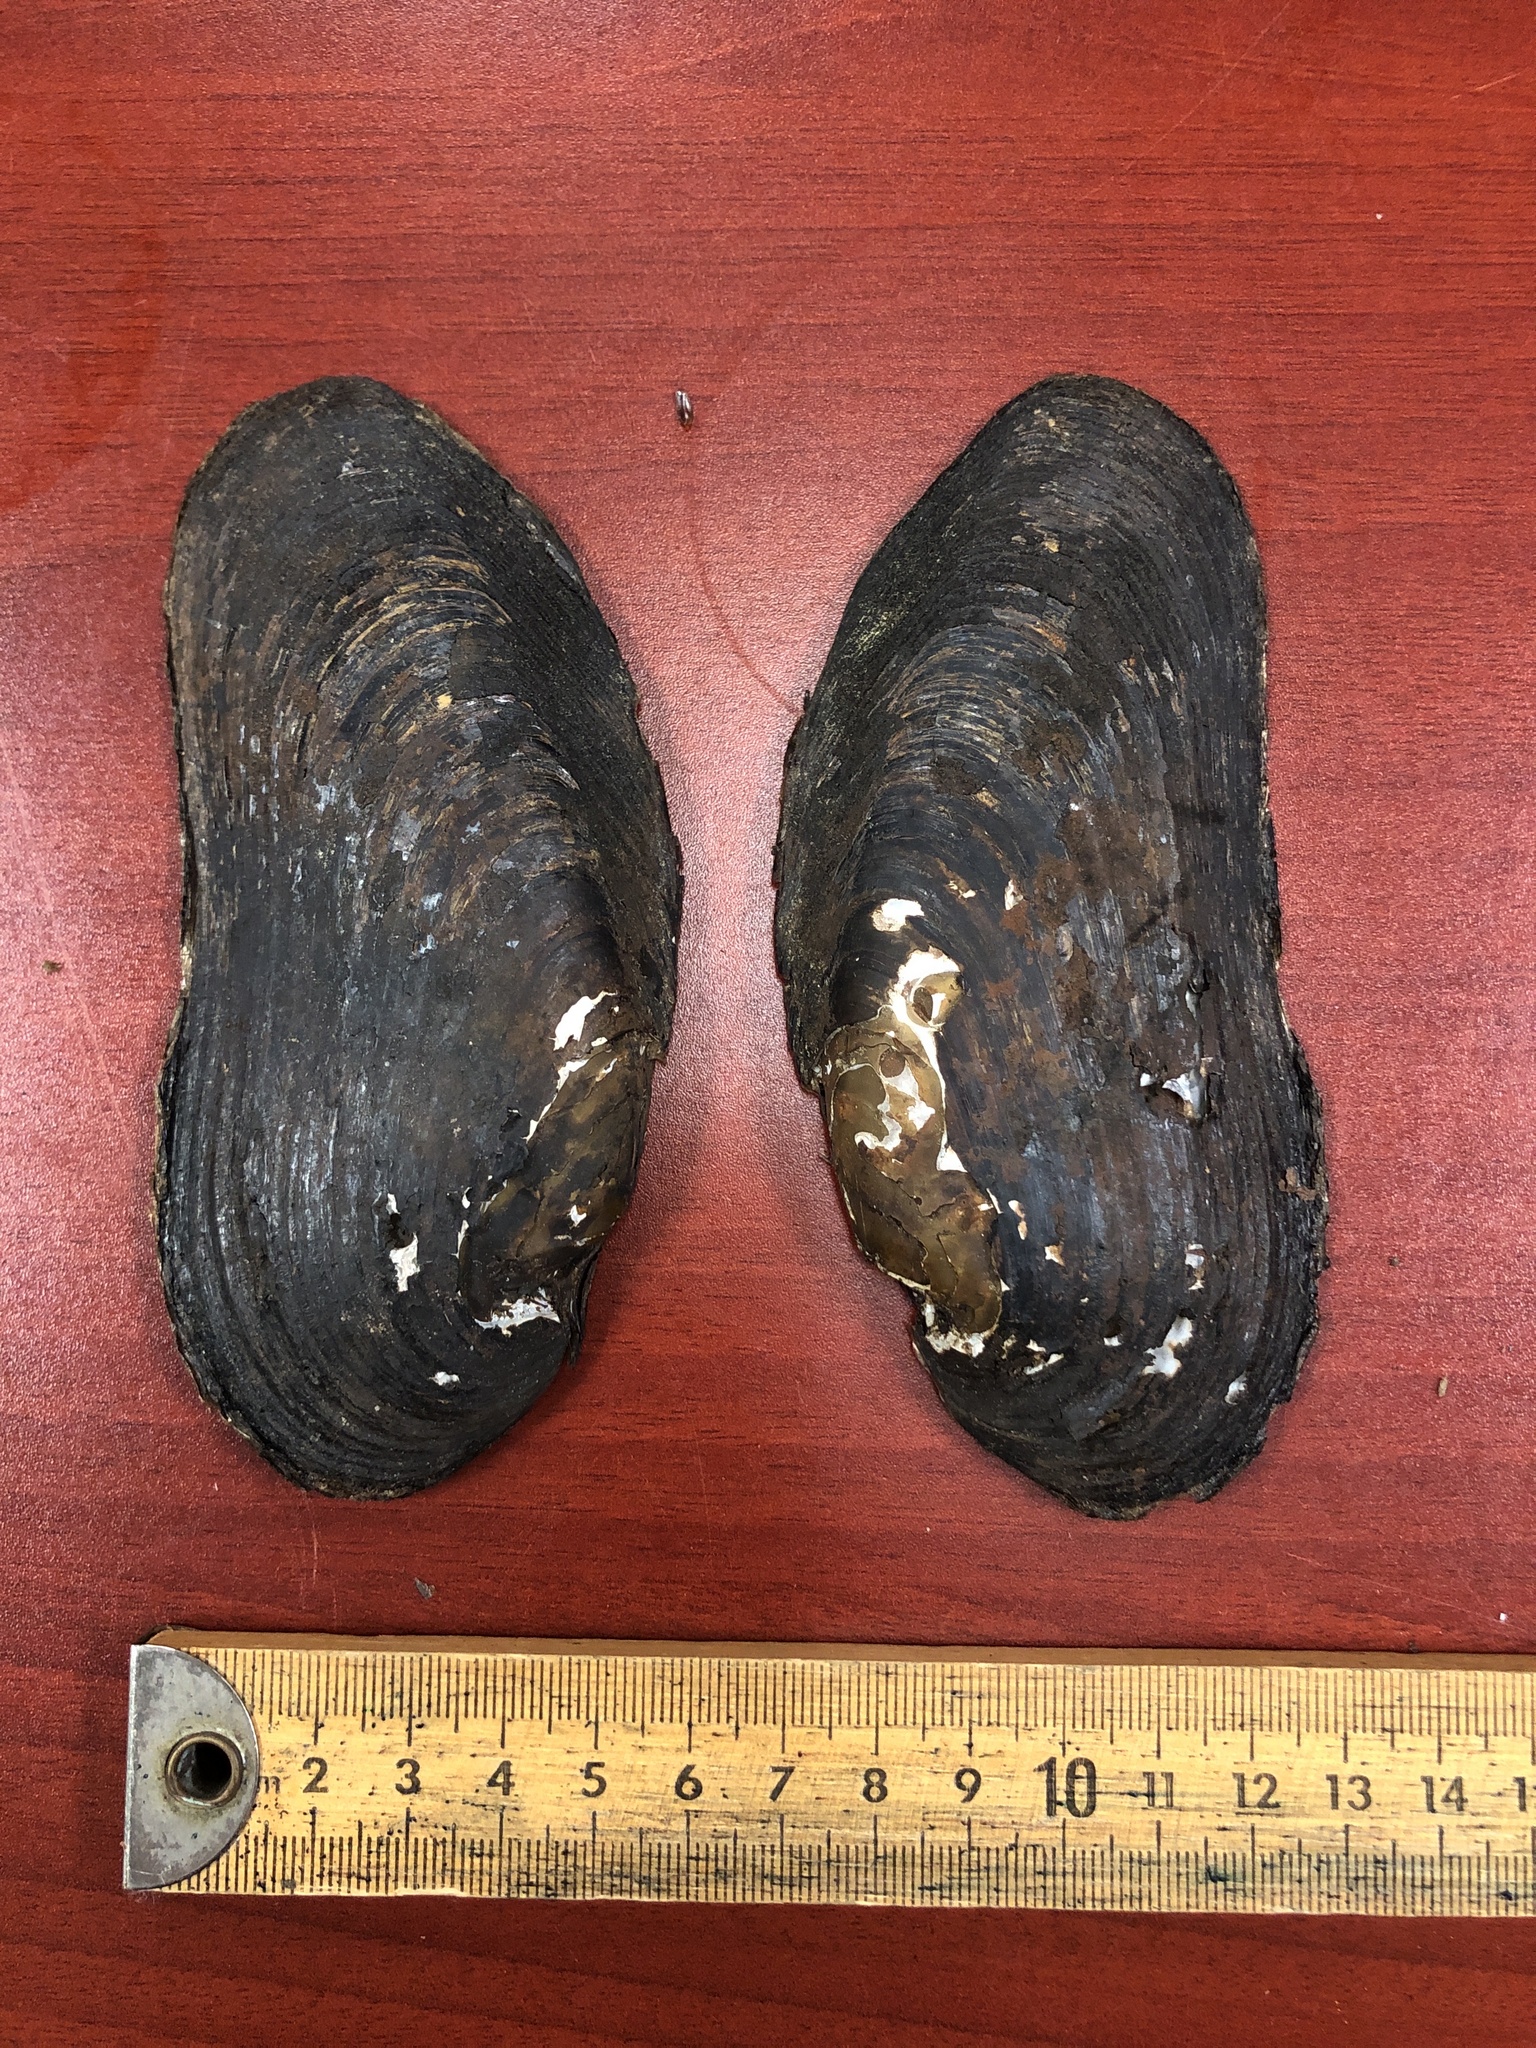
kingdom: Animalia
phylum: Mollusca
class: Bivalvia
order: Unionida
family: Margaritiferidae
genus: Margaritifera
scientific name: Margaritifera margaritifera
